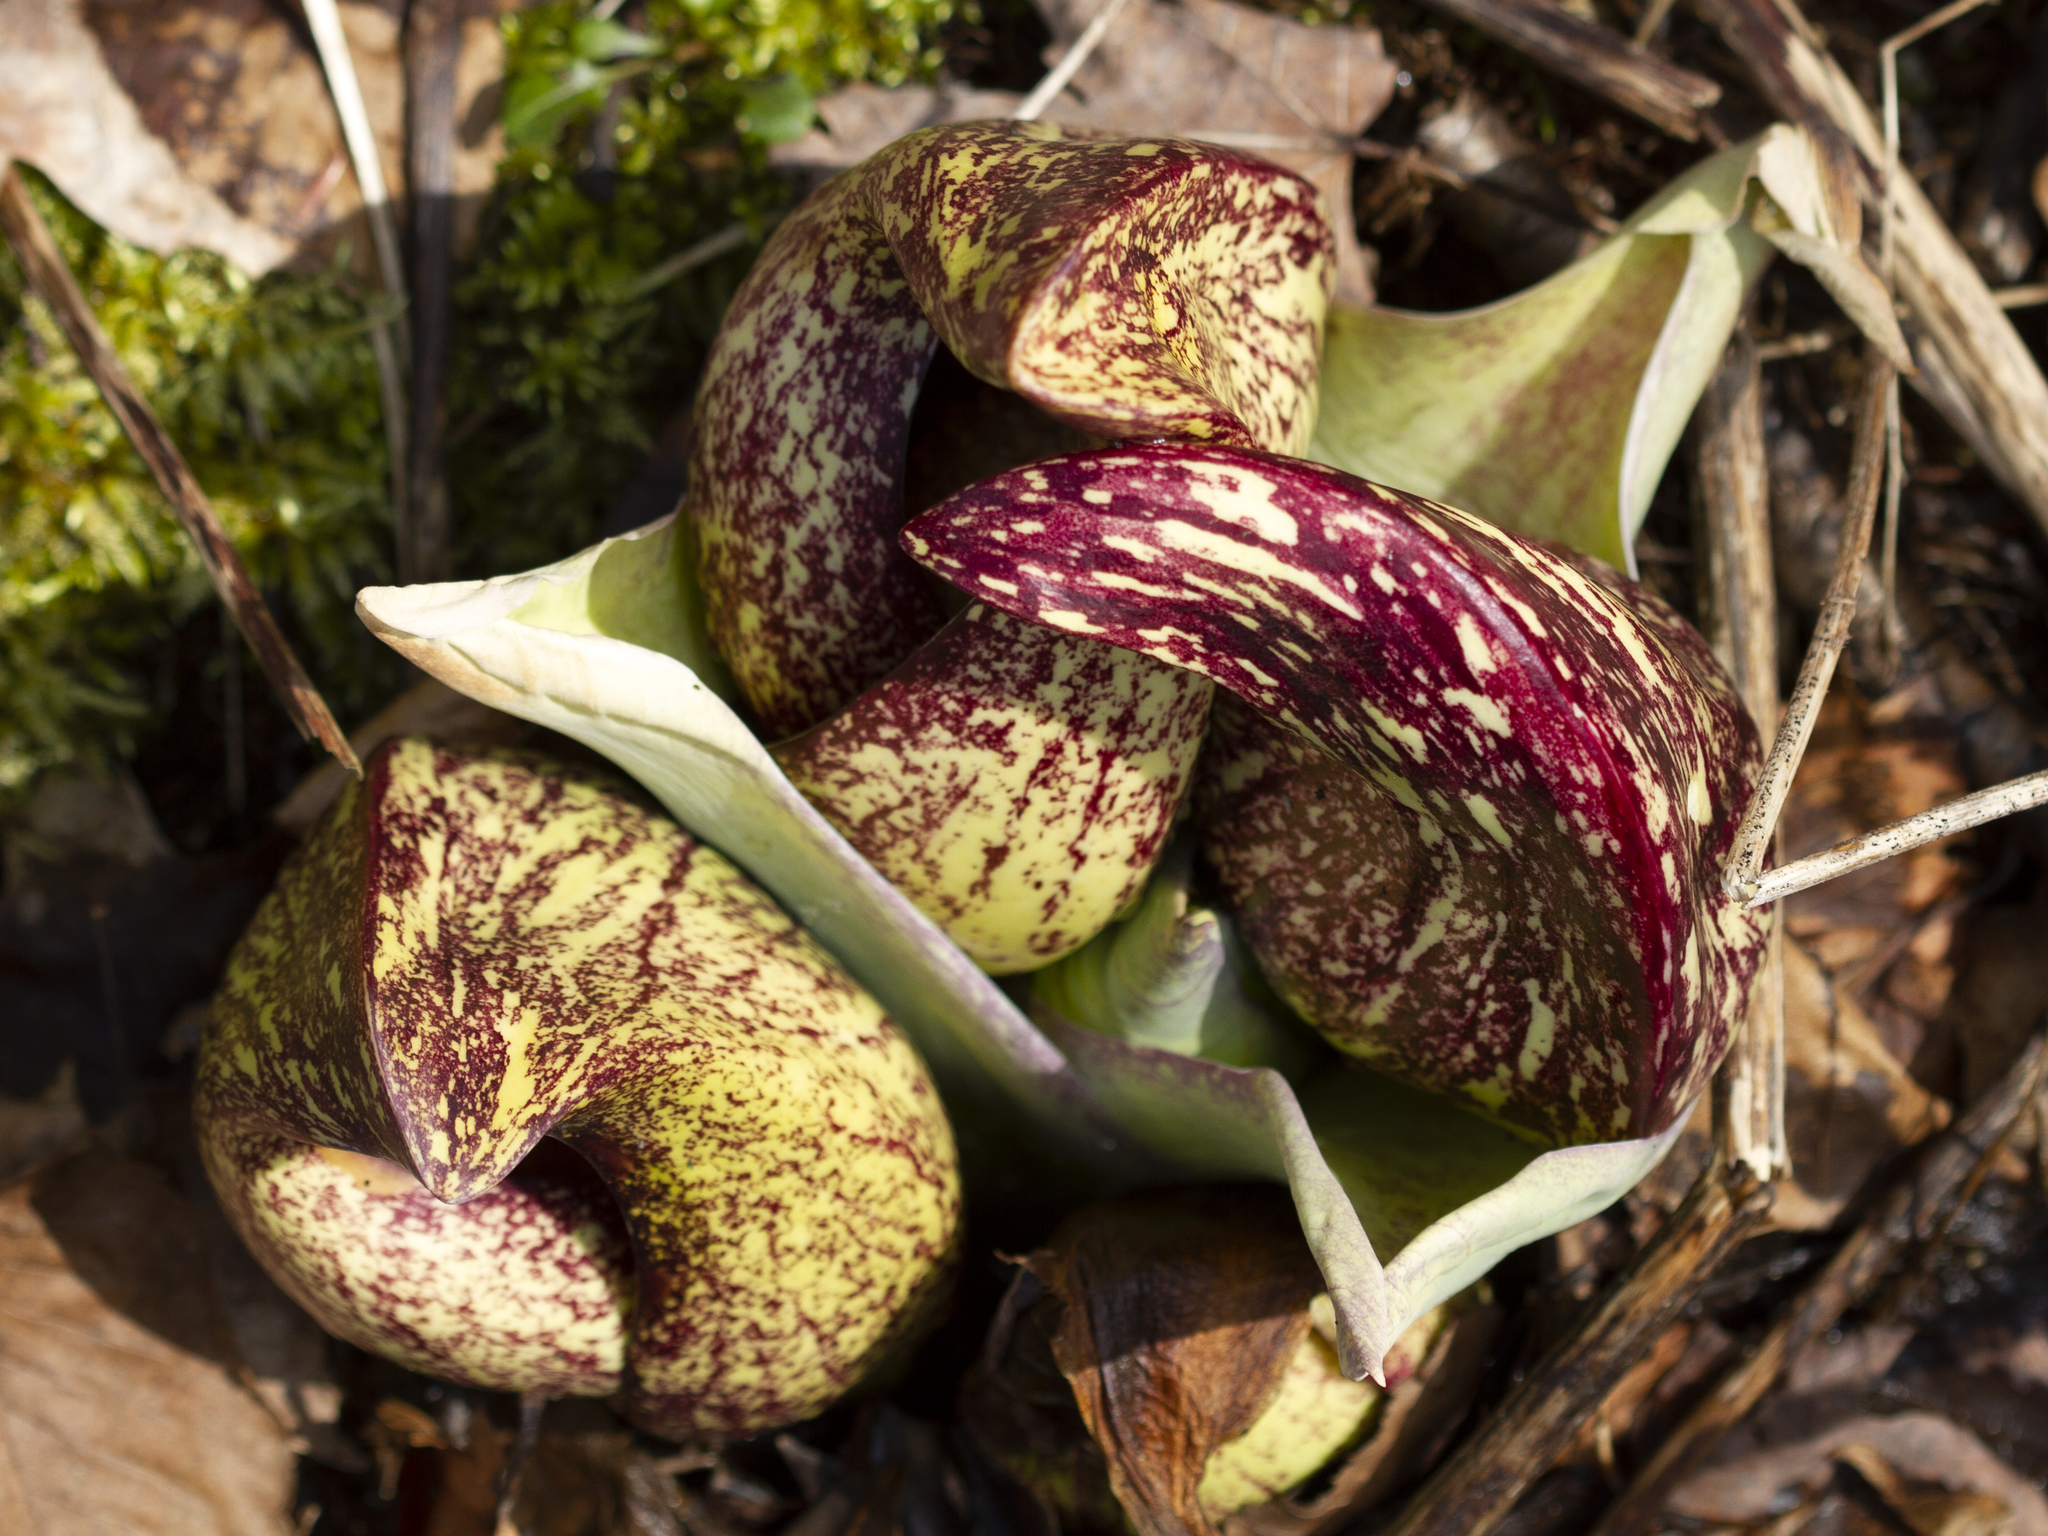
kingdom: Plantae
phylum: Tracheophyta
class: Liliopsida
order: Alismatales
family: Araceae
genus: Symplocarpus
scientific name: Symplocarpus foetidus
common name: Eastern skunk cabbage
